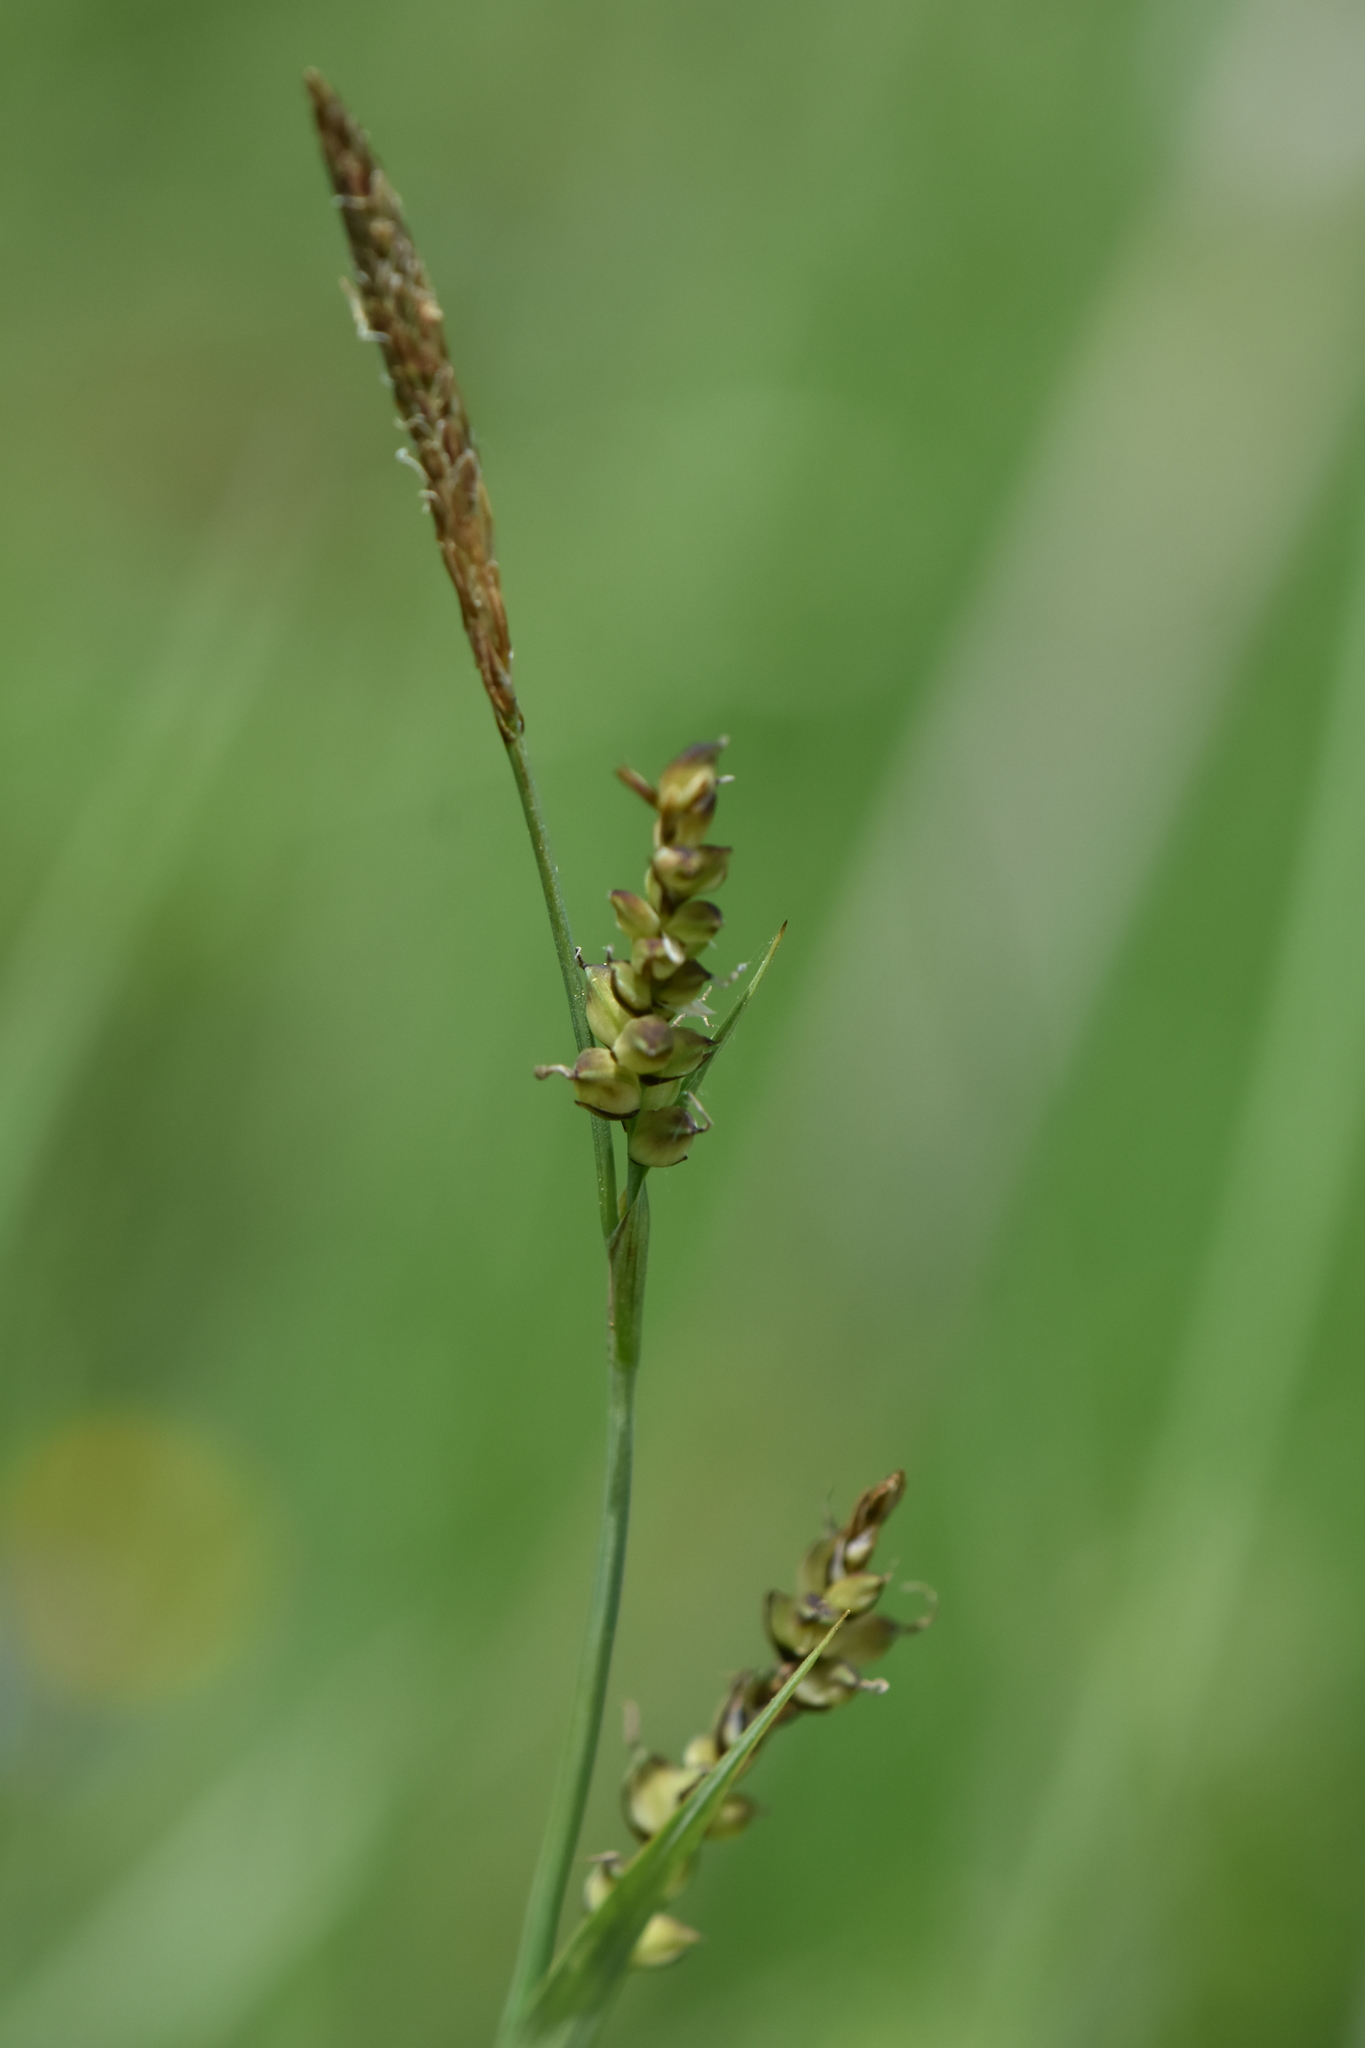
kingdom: Plantae
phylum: Tracheophyta
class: Liliopsida
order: Poales
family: Cyperaceae
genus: Carex
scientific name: Carex panicea
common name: Carnation sedge
